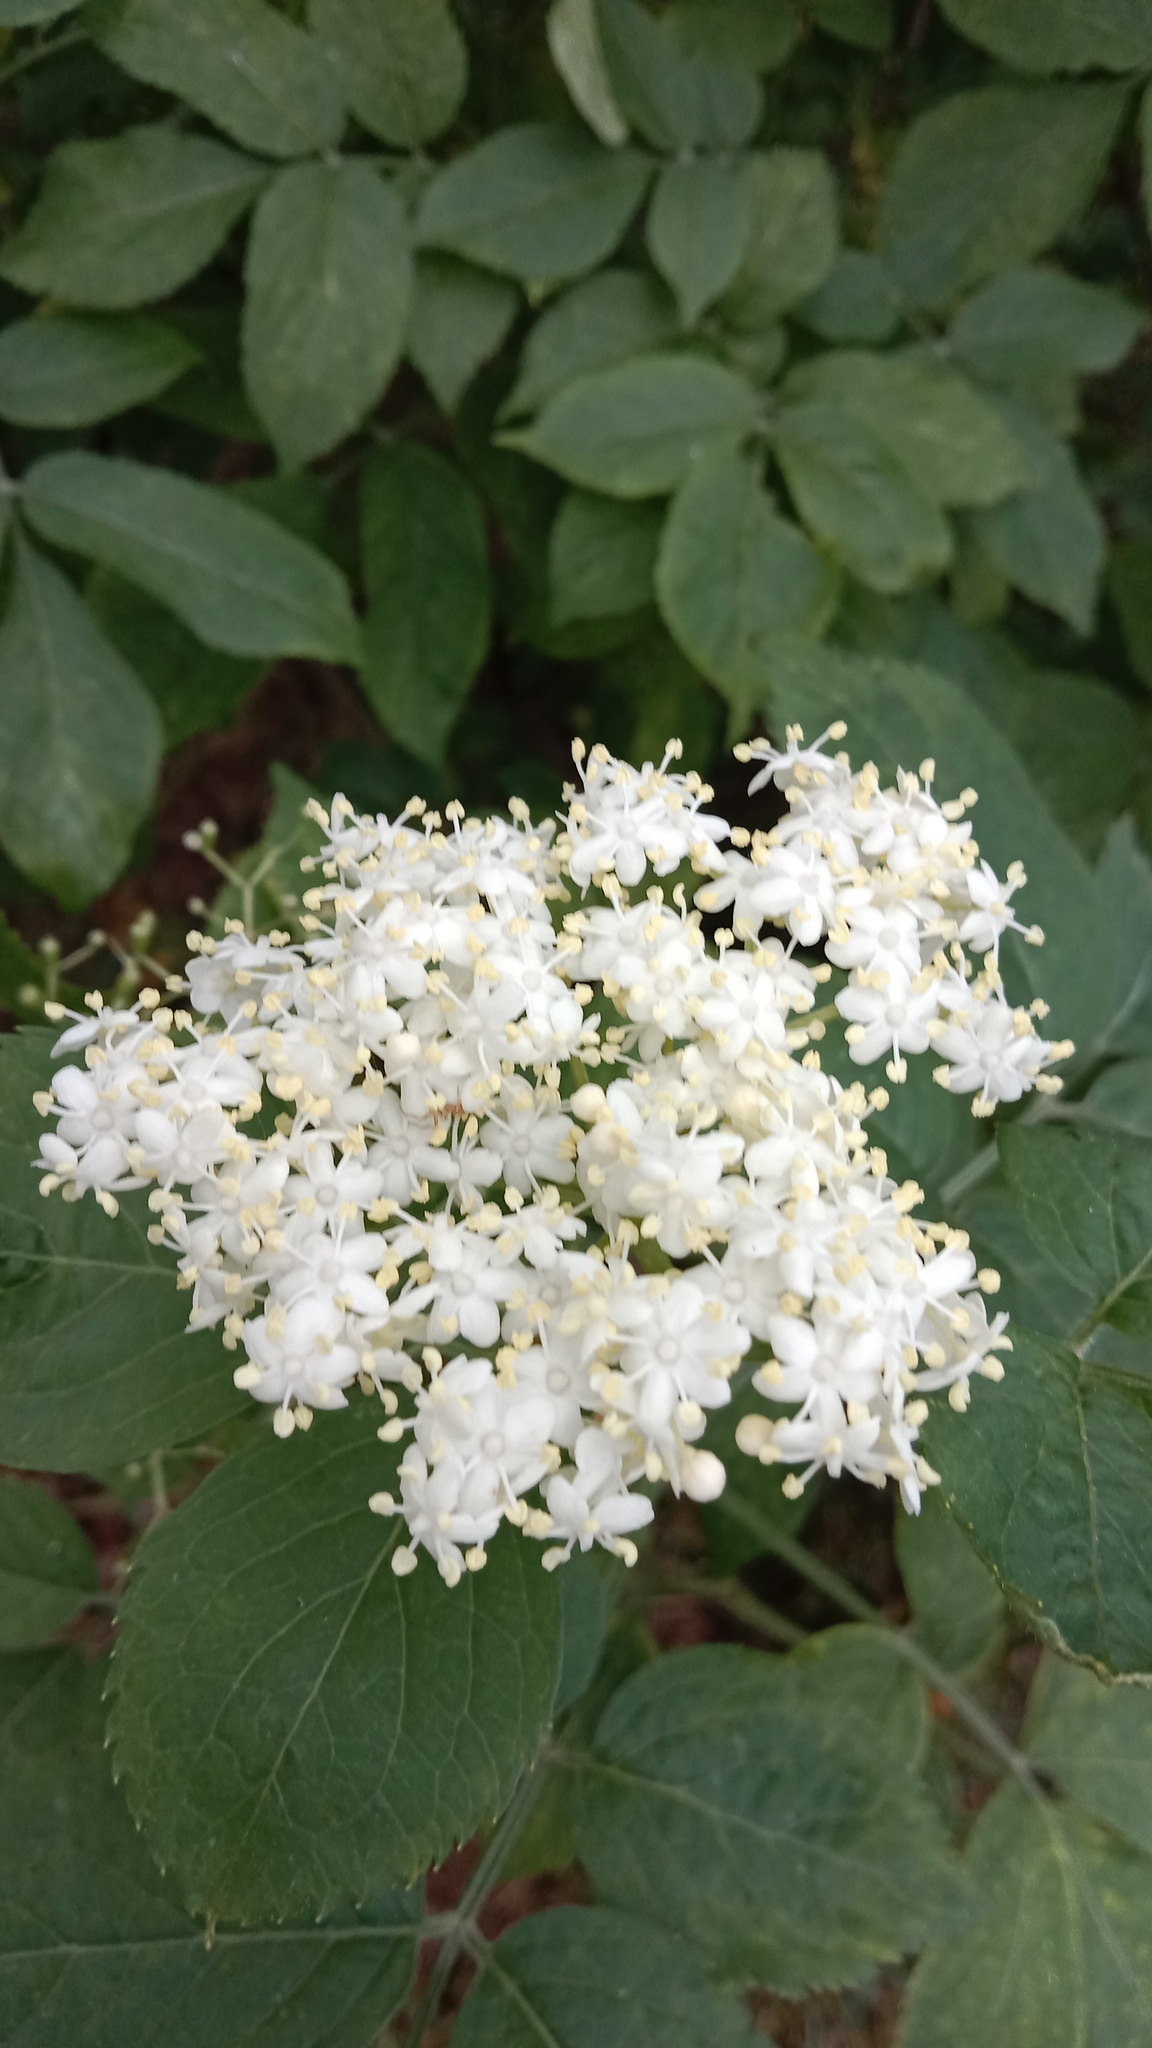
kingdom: Plantae
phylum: Tracheophyta
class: Magnoliopsida
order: Dipsacales
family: Viburnaceae
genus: Sambucus
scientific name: Sambucus nigra
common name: Elder
